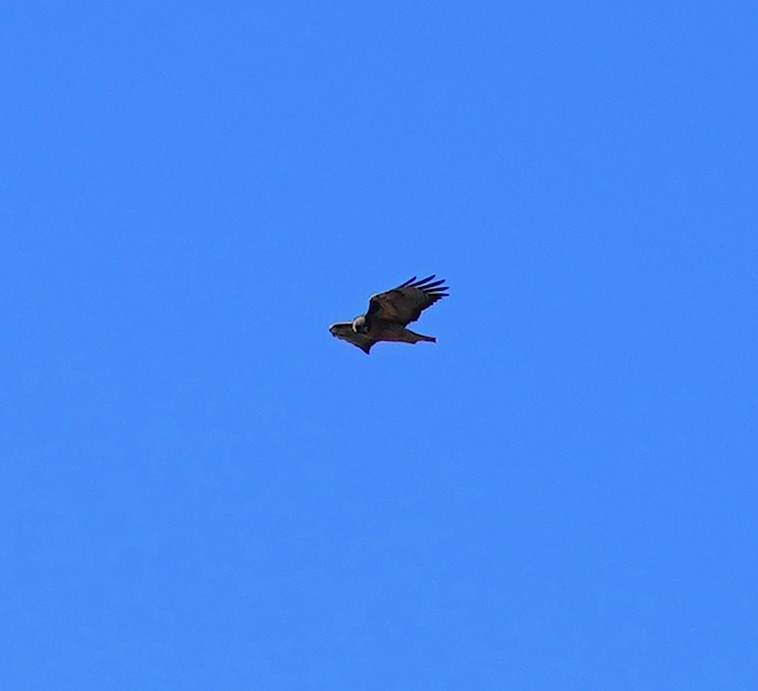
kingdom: Animalia
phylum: Chordata
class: Aves
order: Accipitriformes
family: Accipitridae
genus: Buteo
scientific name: Buteo jamaicensis
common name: Red-tailed hawk
